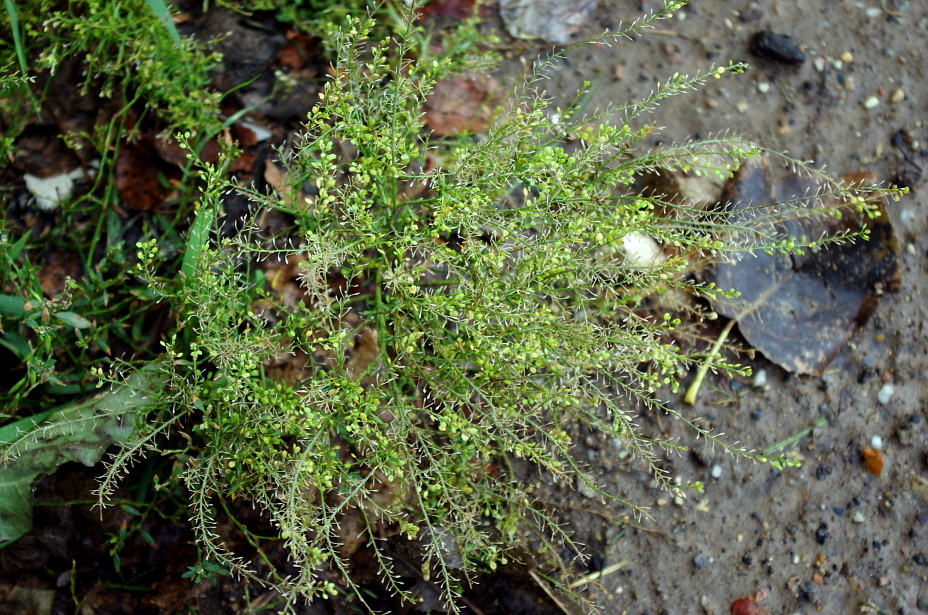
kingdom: Plantae
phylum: Tracheophyta
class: Magnoliopsida
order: Brassicales
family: Brassicaceae
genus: Lepidium
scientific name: Lepidium ruderale
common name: Narrow-leaved pepperwort
